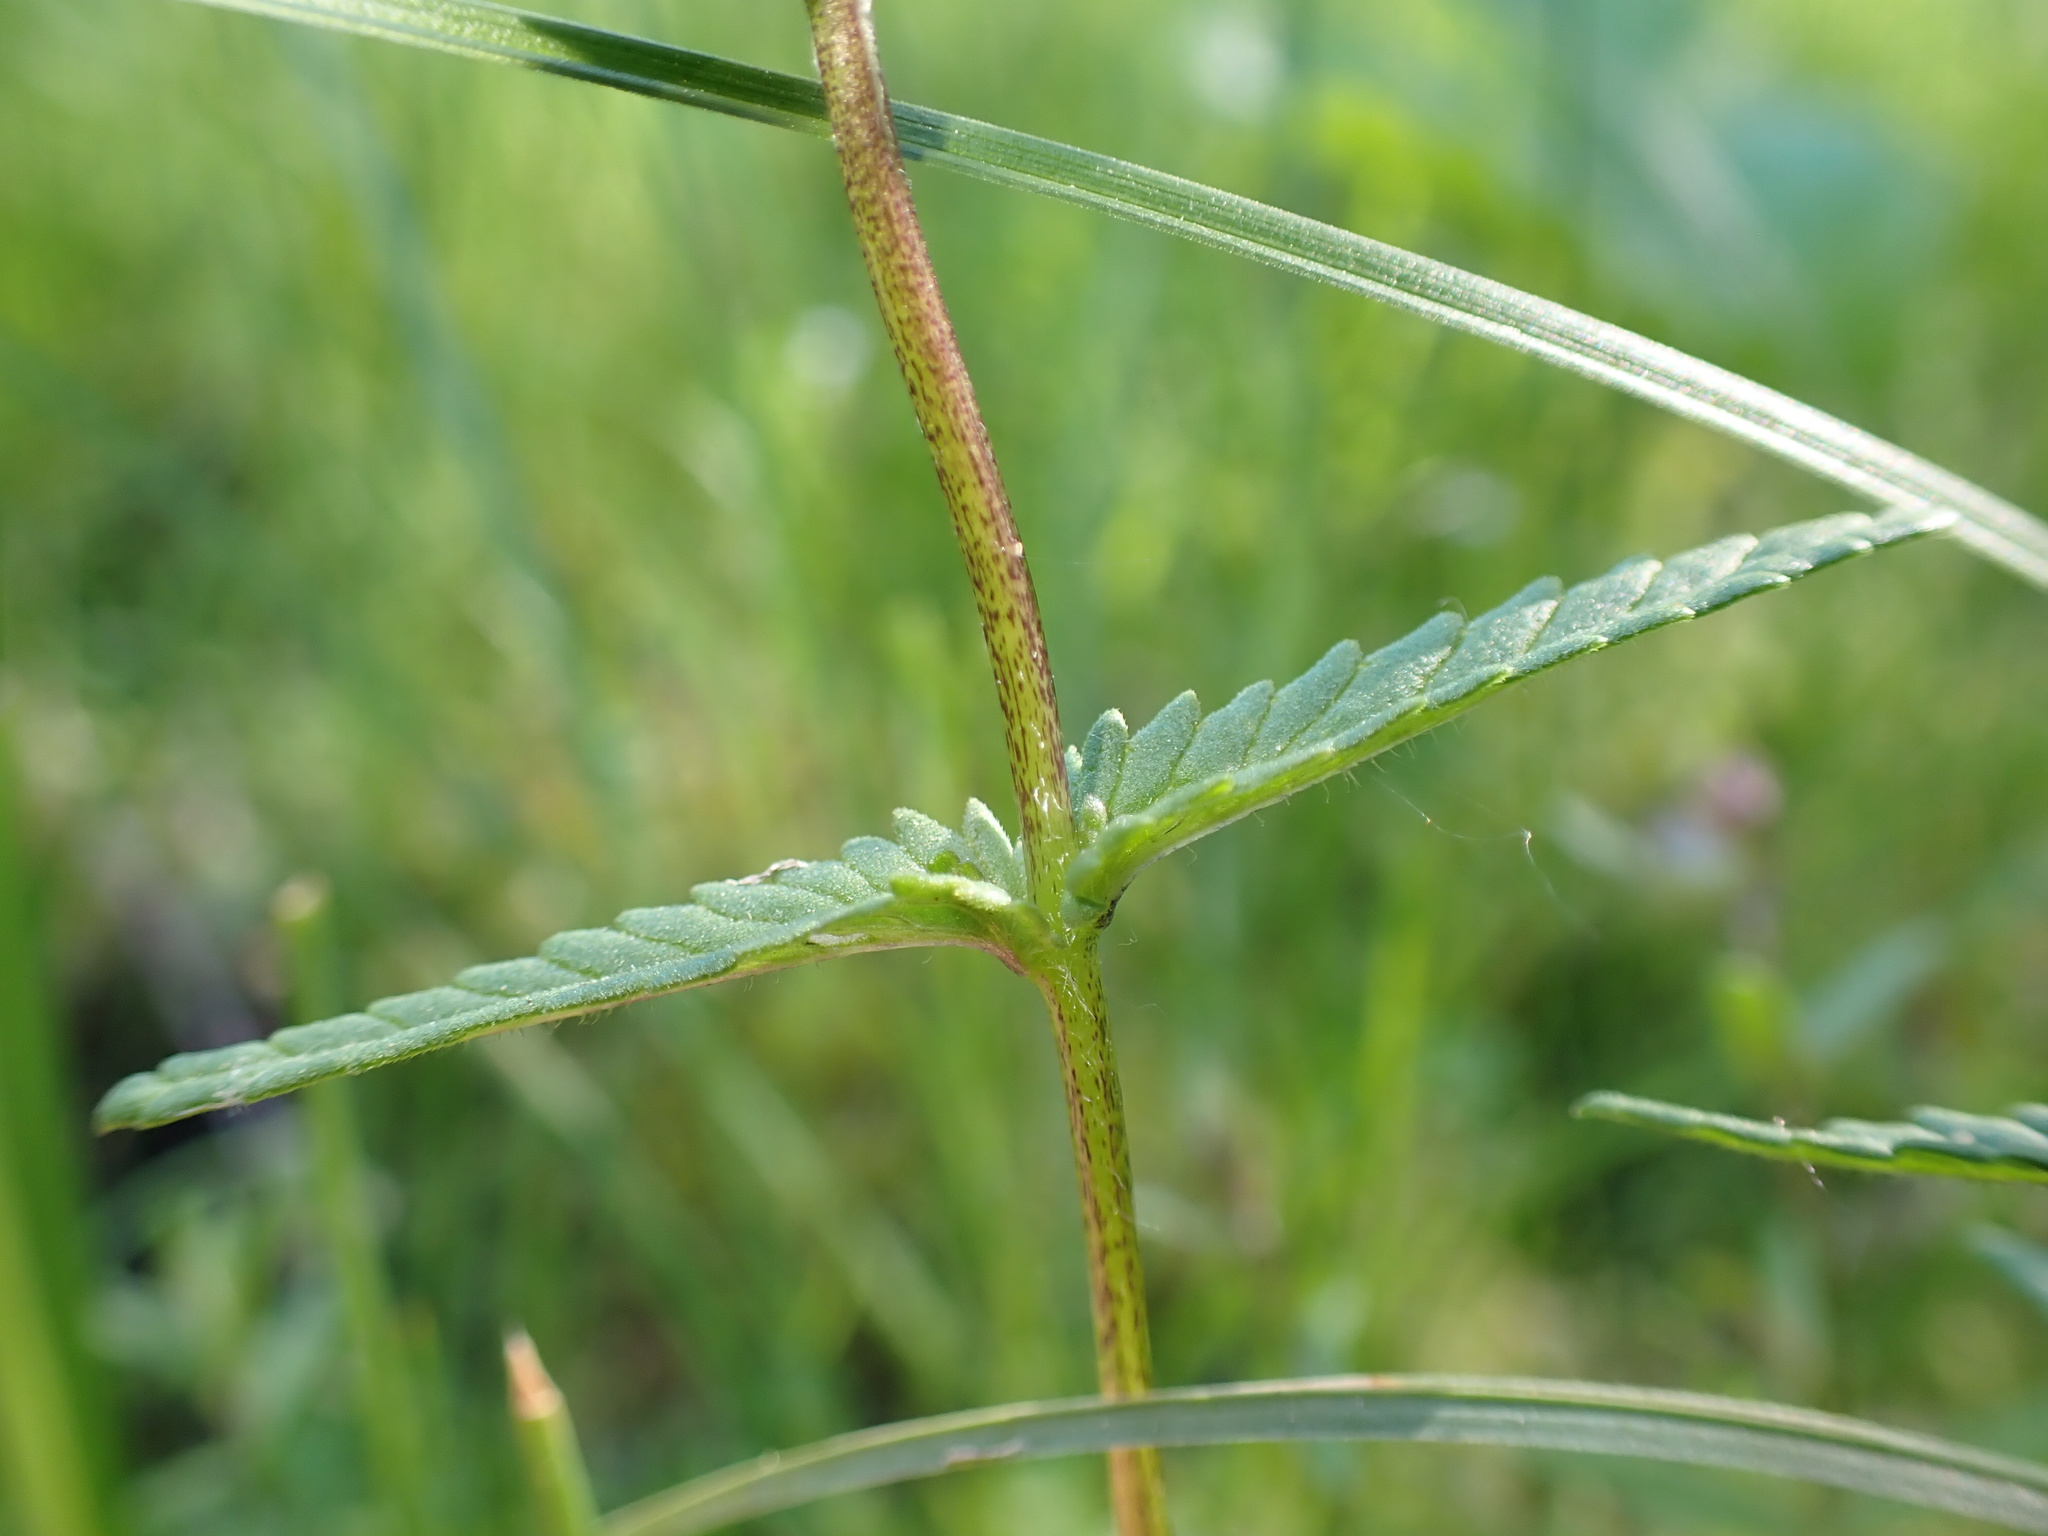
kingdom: Plantae
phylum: Tracheophyta
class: Magnoliopsida
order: Lamiales
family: Orobanchaceae
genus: Rhinanthus
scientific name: Rhinanthus minor
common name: Yellow-rattle
